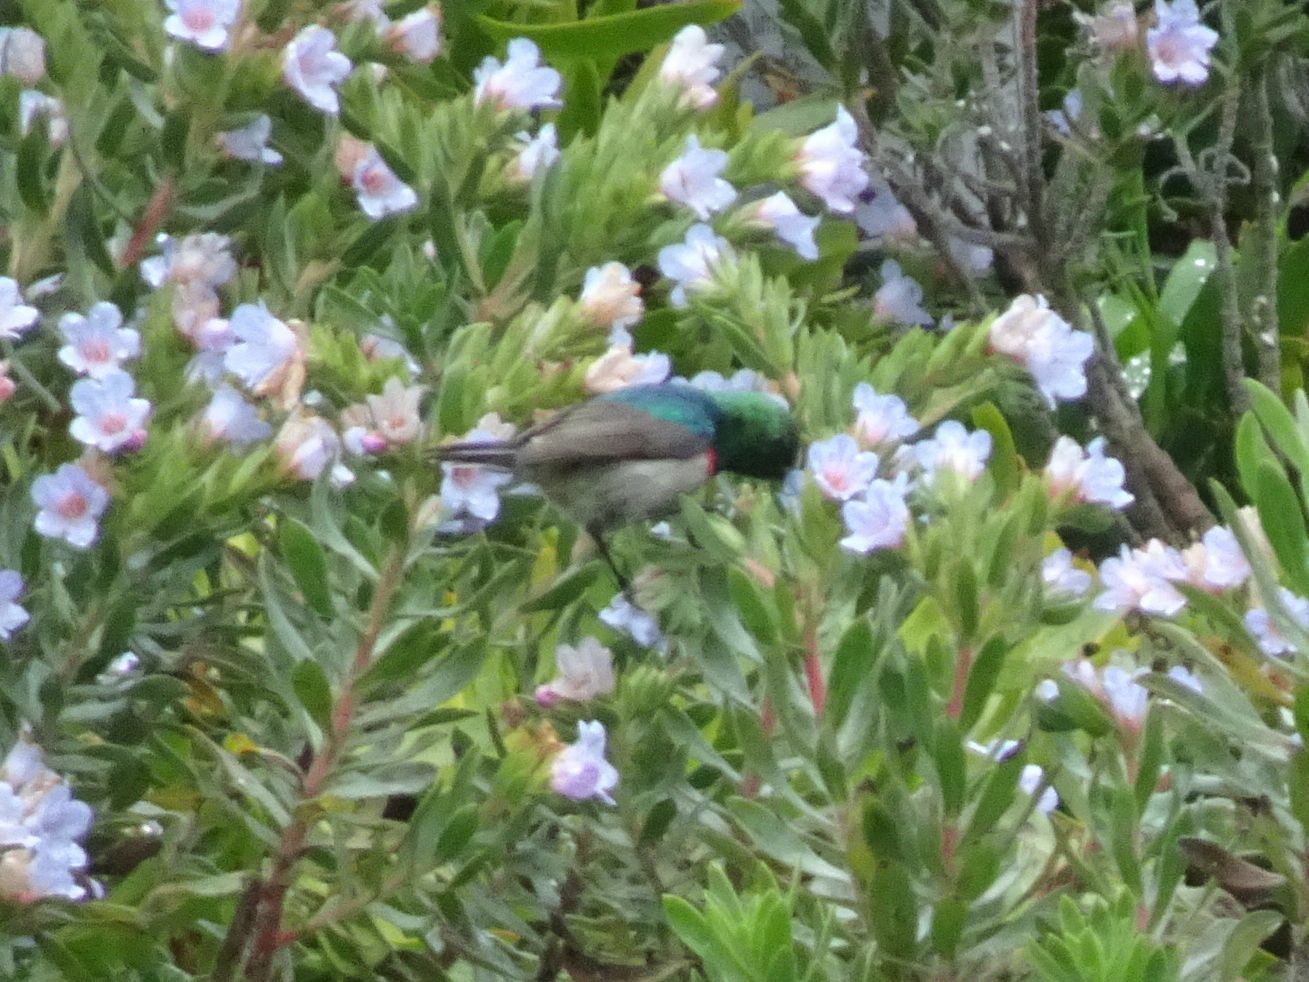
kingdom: Animalia
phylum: Chordata
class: Aves
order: Passeriformes
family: Nectariniidae
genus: Cinnyris
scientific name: Cinnyris chalybeus
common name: Southern double-collared sunbird
